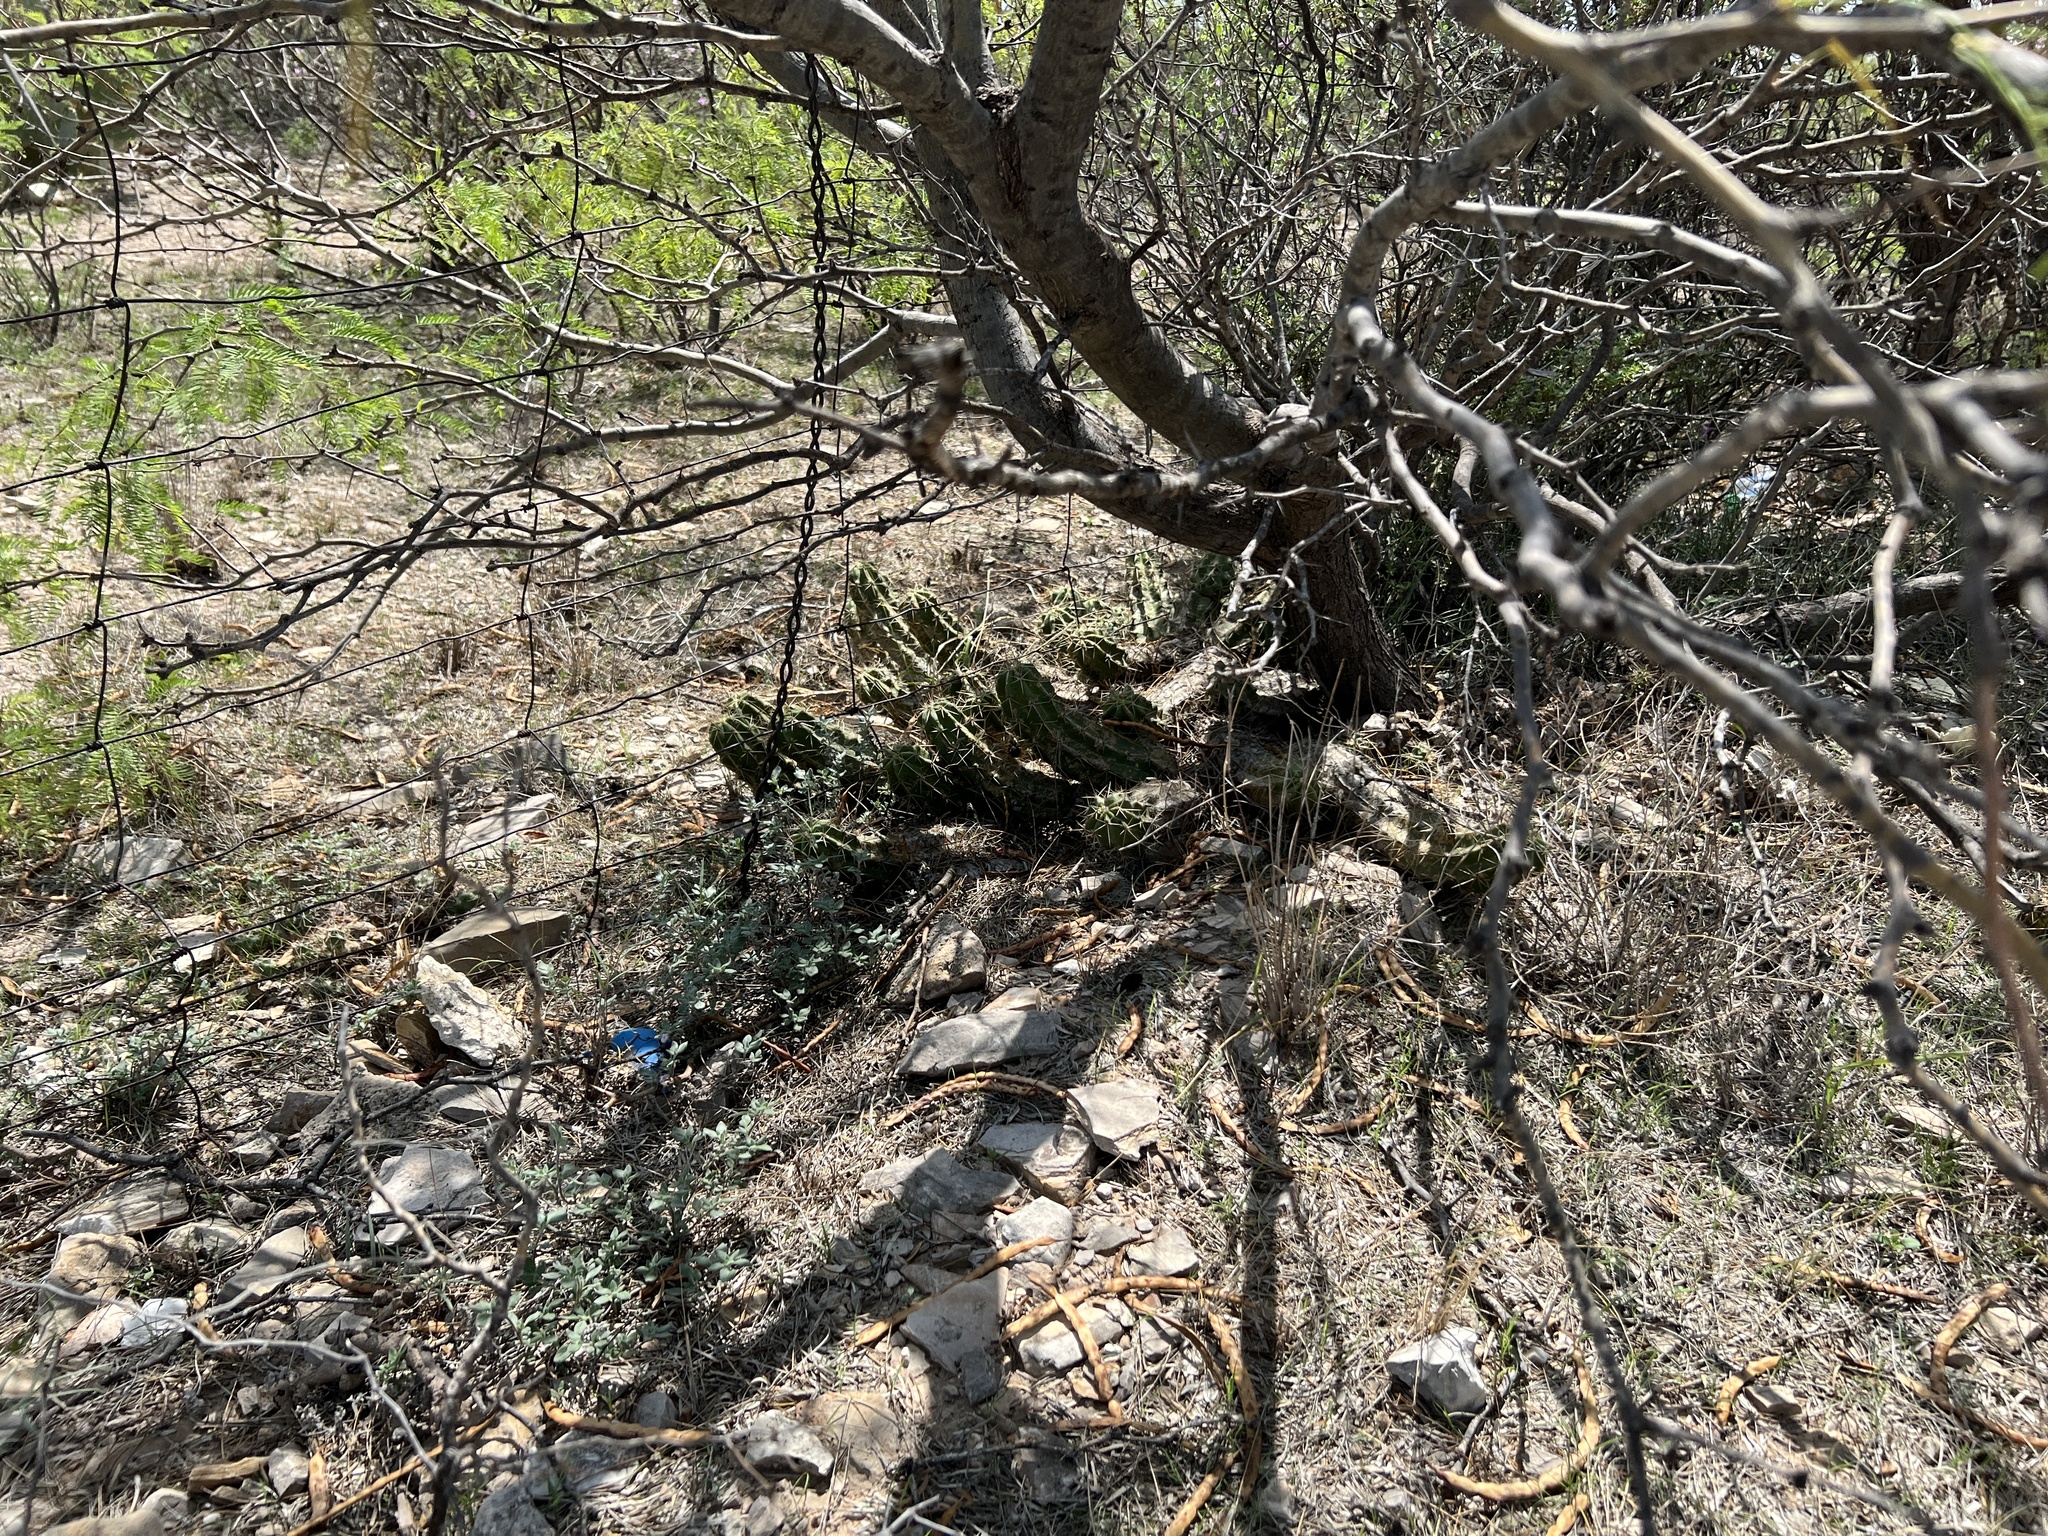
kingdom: Plantae
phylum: Tracheophyta
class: Magnoliopsida
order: Caryophyllales
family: Cactaceae
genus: Echinocereus
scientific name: Echinocereus enneacanthus
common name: Pitaya
